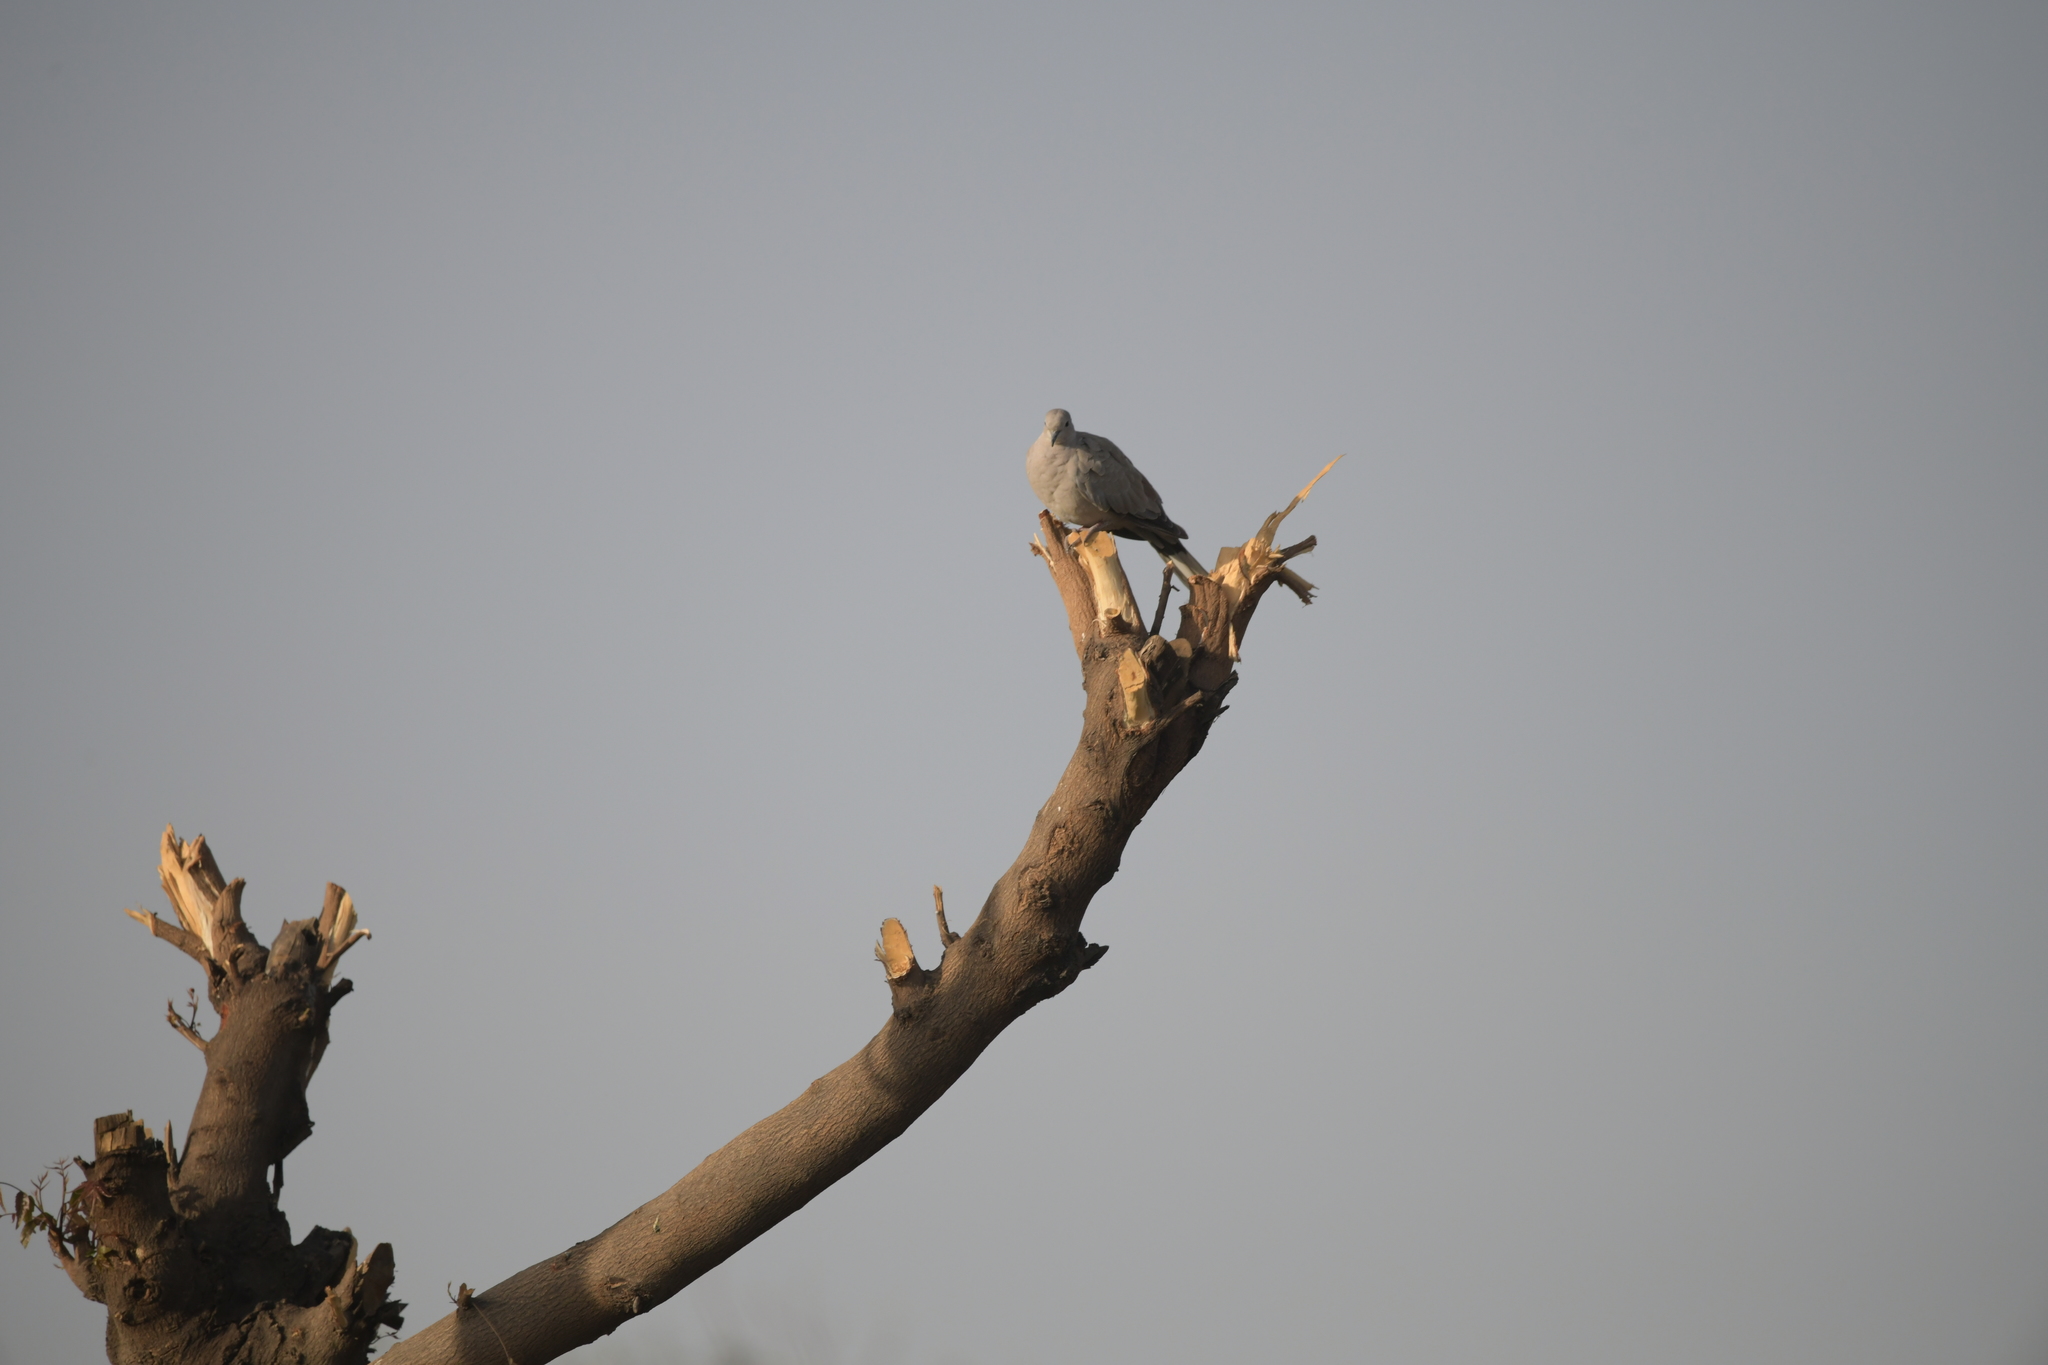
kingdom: Animalia
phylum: Chordata
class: Aves
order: Columbiformes
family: Columbidae
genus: Streptopelia
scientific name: Streptopelia decaocto
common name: Eurasian collared dove
